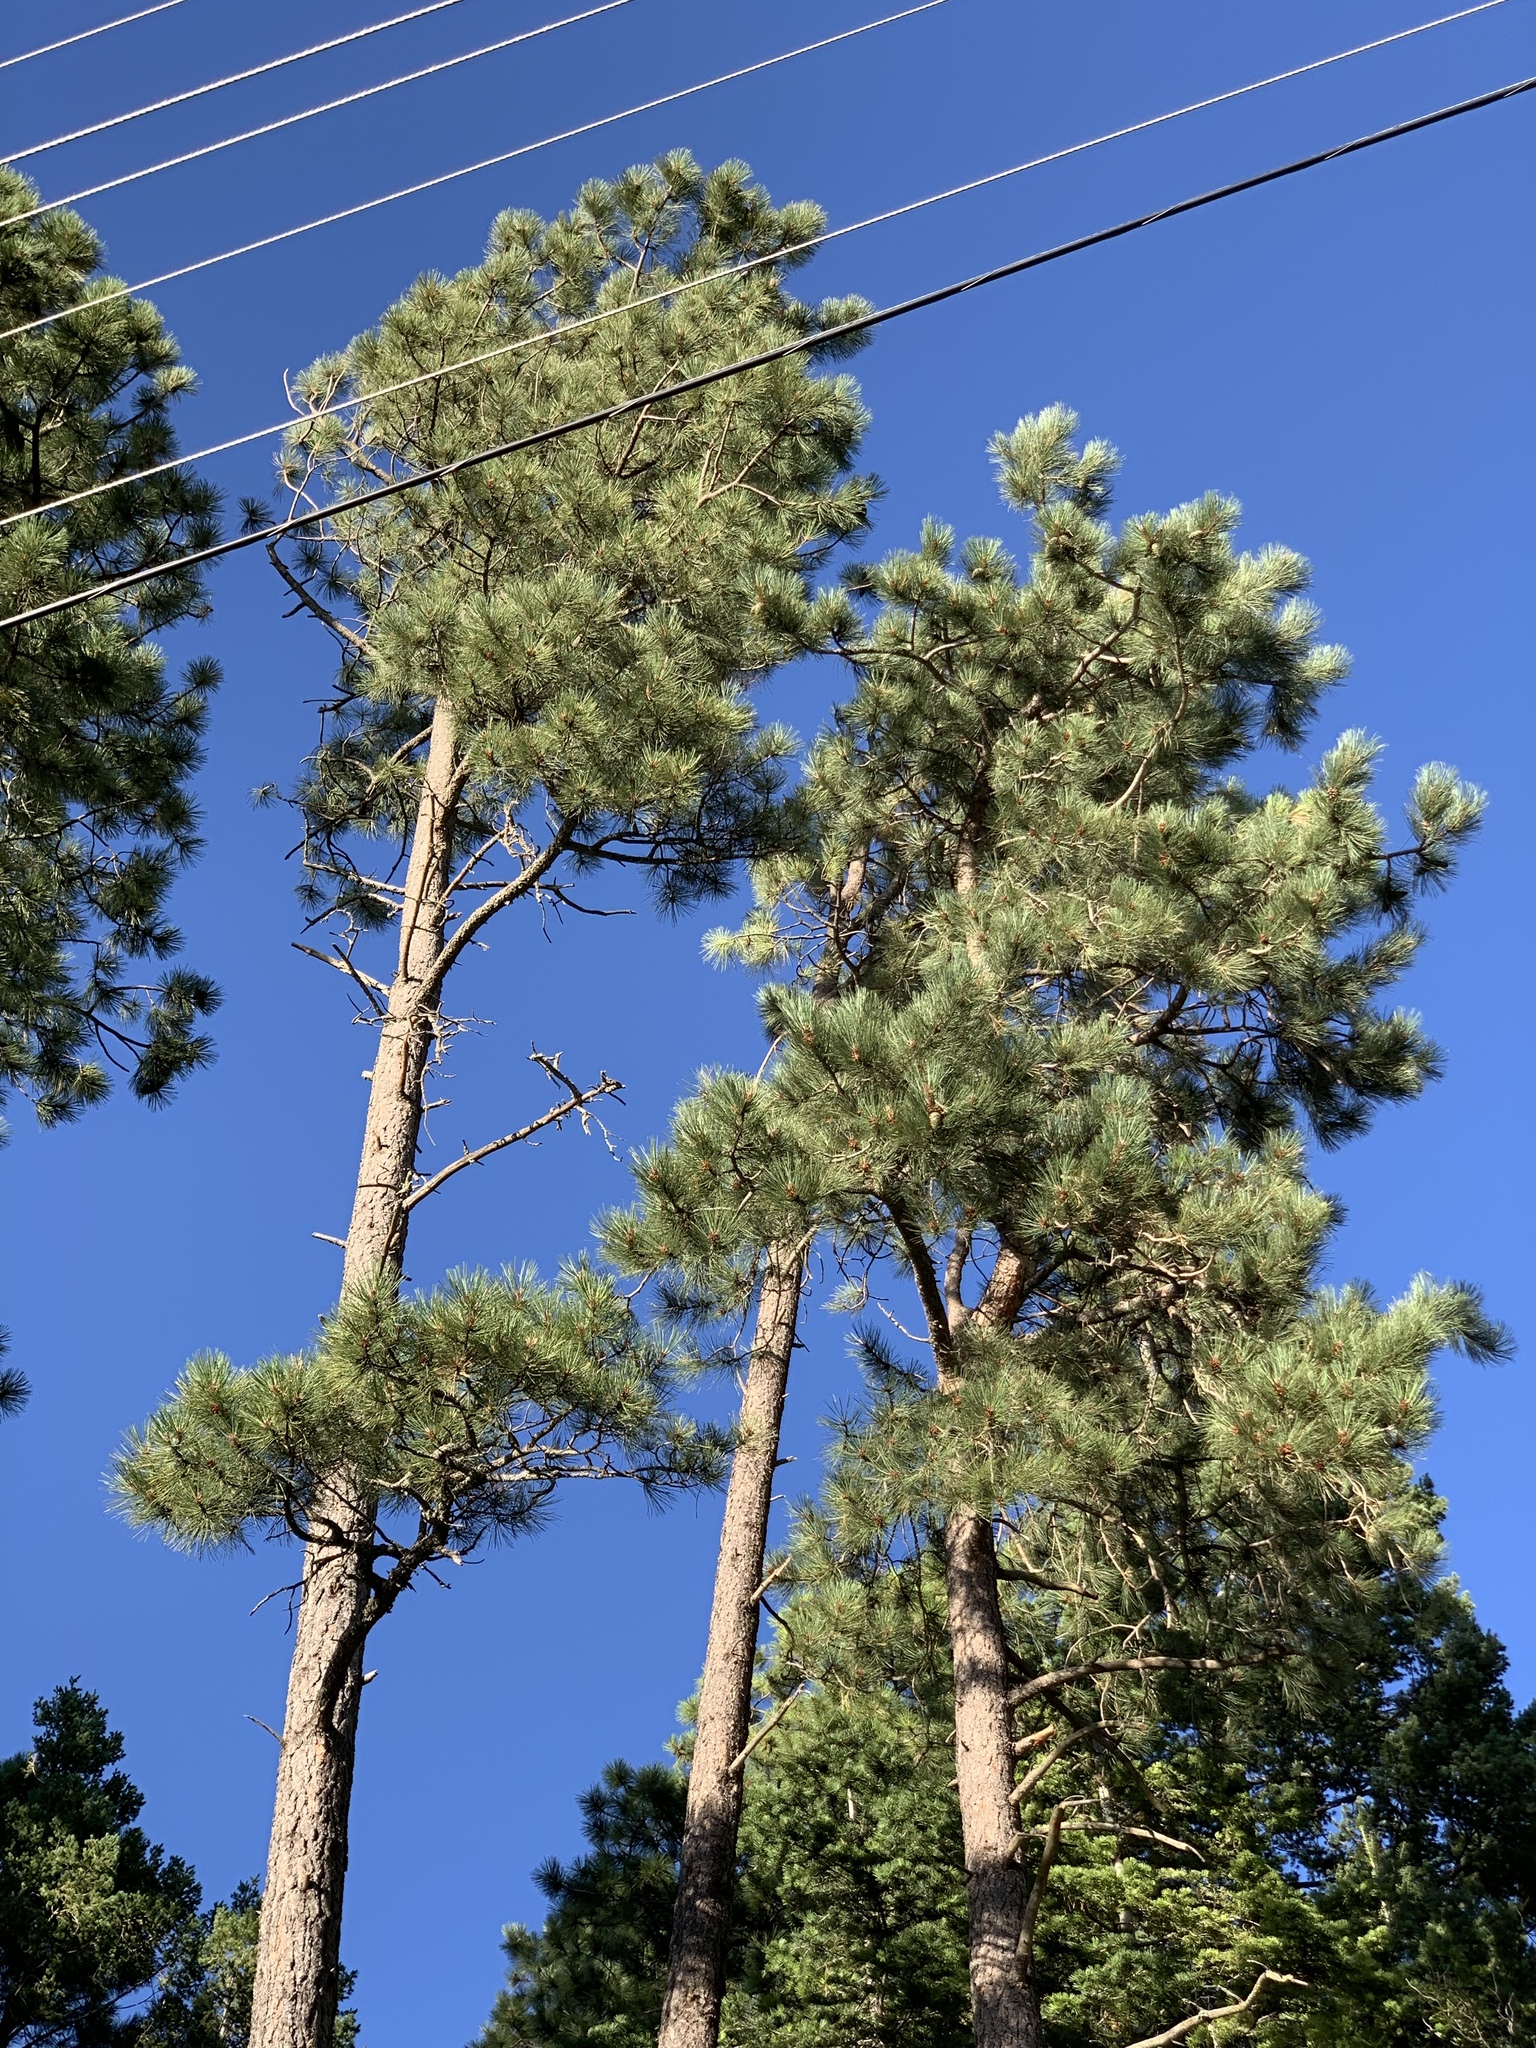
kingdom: Plantae
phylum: Tracheophyta
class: Pinopsida
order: Pinales
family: Pinaceae
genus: Pinus
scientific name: Pinus ponderosa
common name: Western yellow-pine
